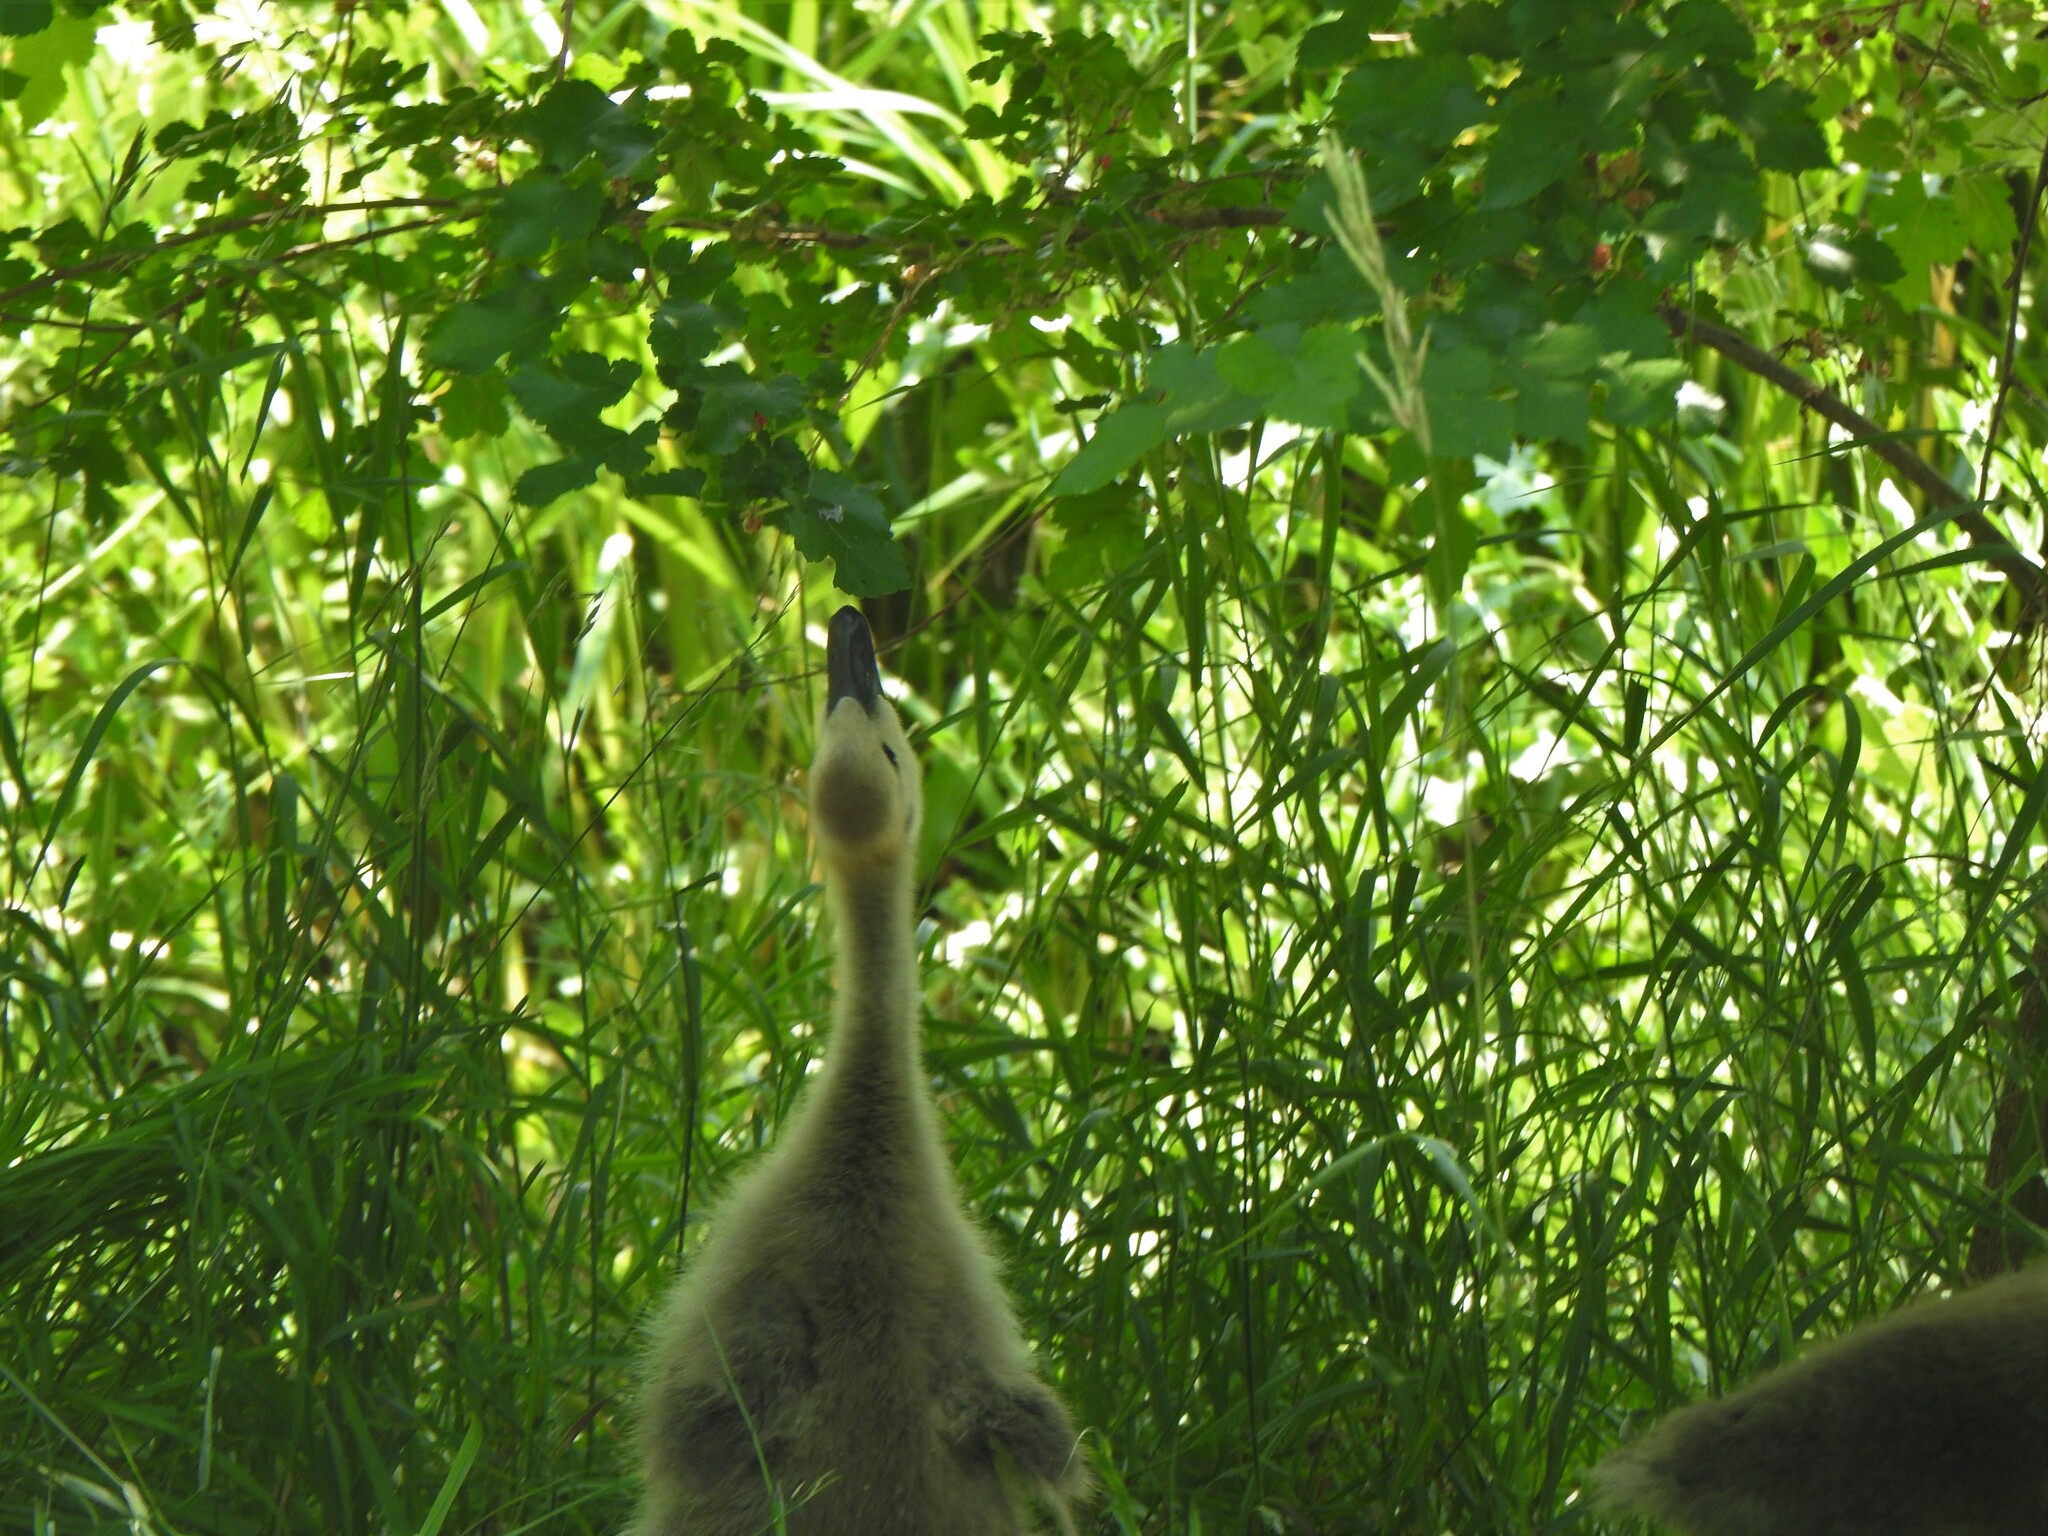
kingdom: Animalia
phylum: Chordata
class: Aves
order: Anseriformes
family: Anatidae
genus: Branta
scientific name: Branta canadensis
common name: Canada goose
